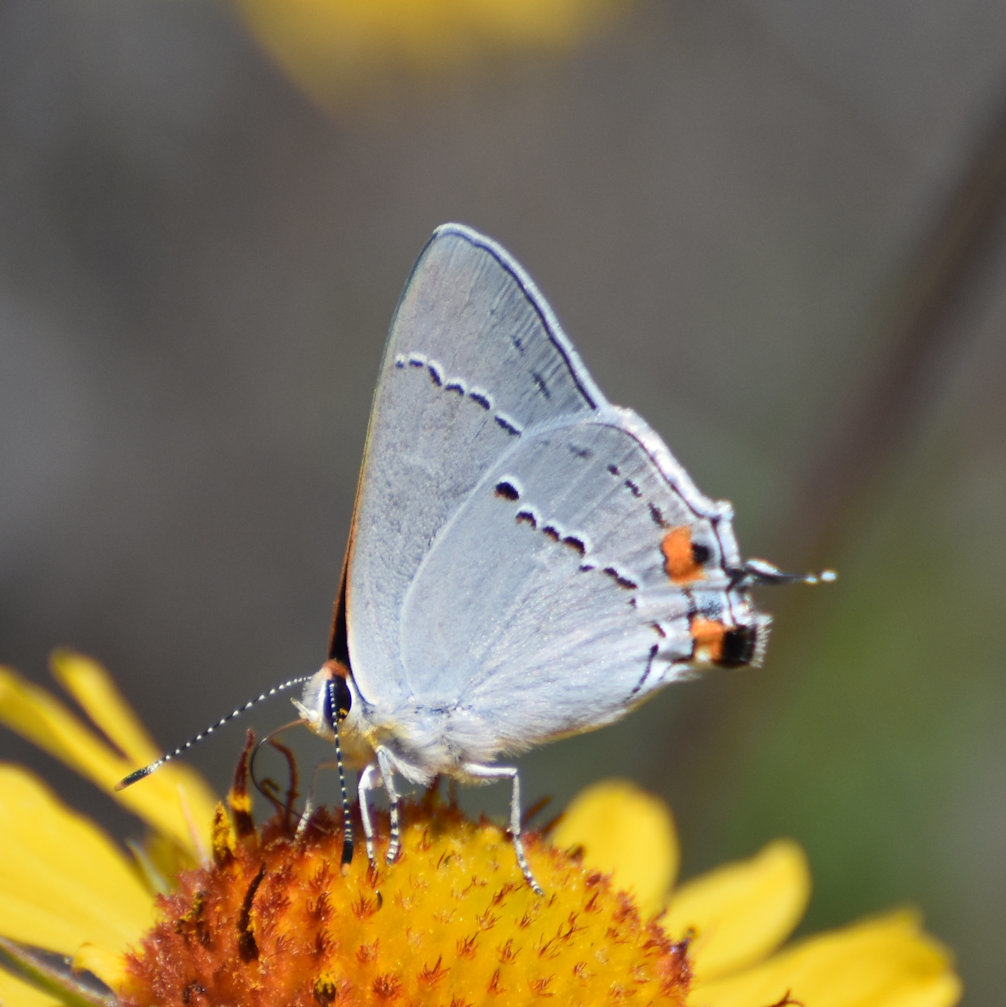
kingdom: Animalia
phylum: Arthropoda
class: Insecta
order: Lepidoptera
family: Lycaenidae
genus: Strymon
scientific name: Strymon melinus
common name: Gray hairstreak
